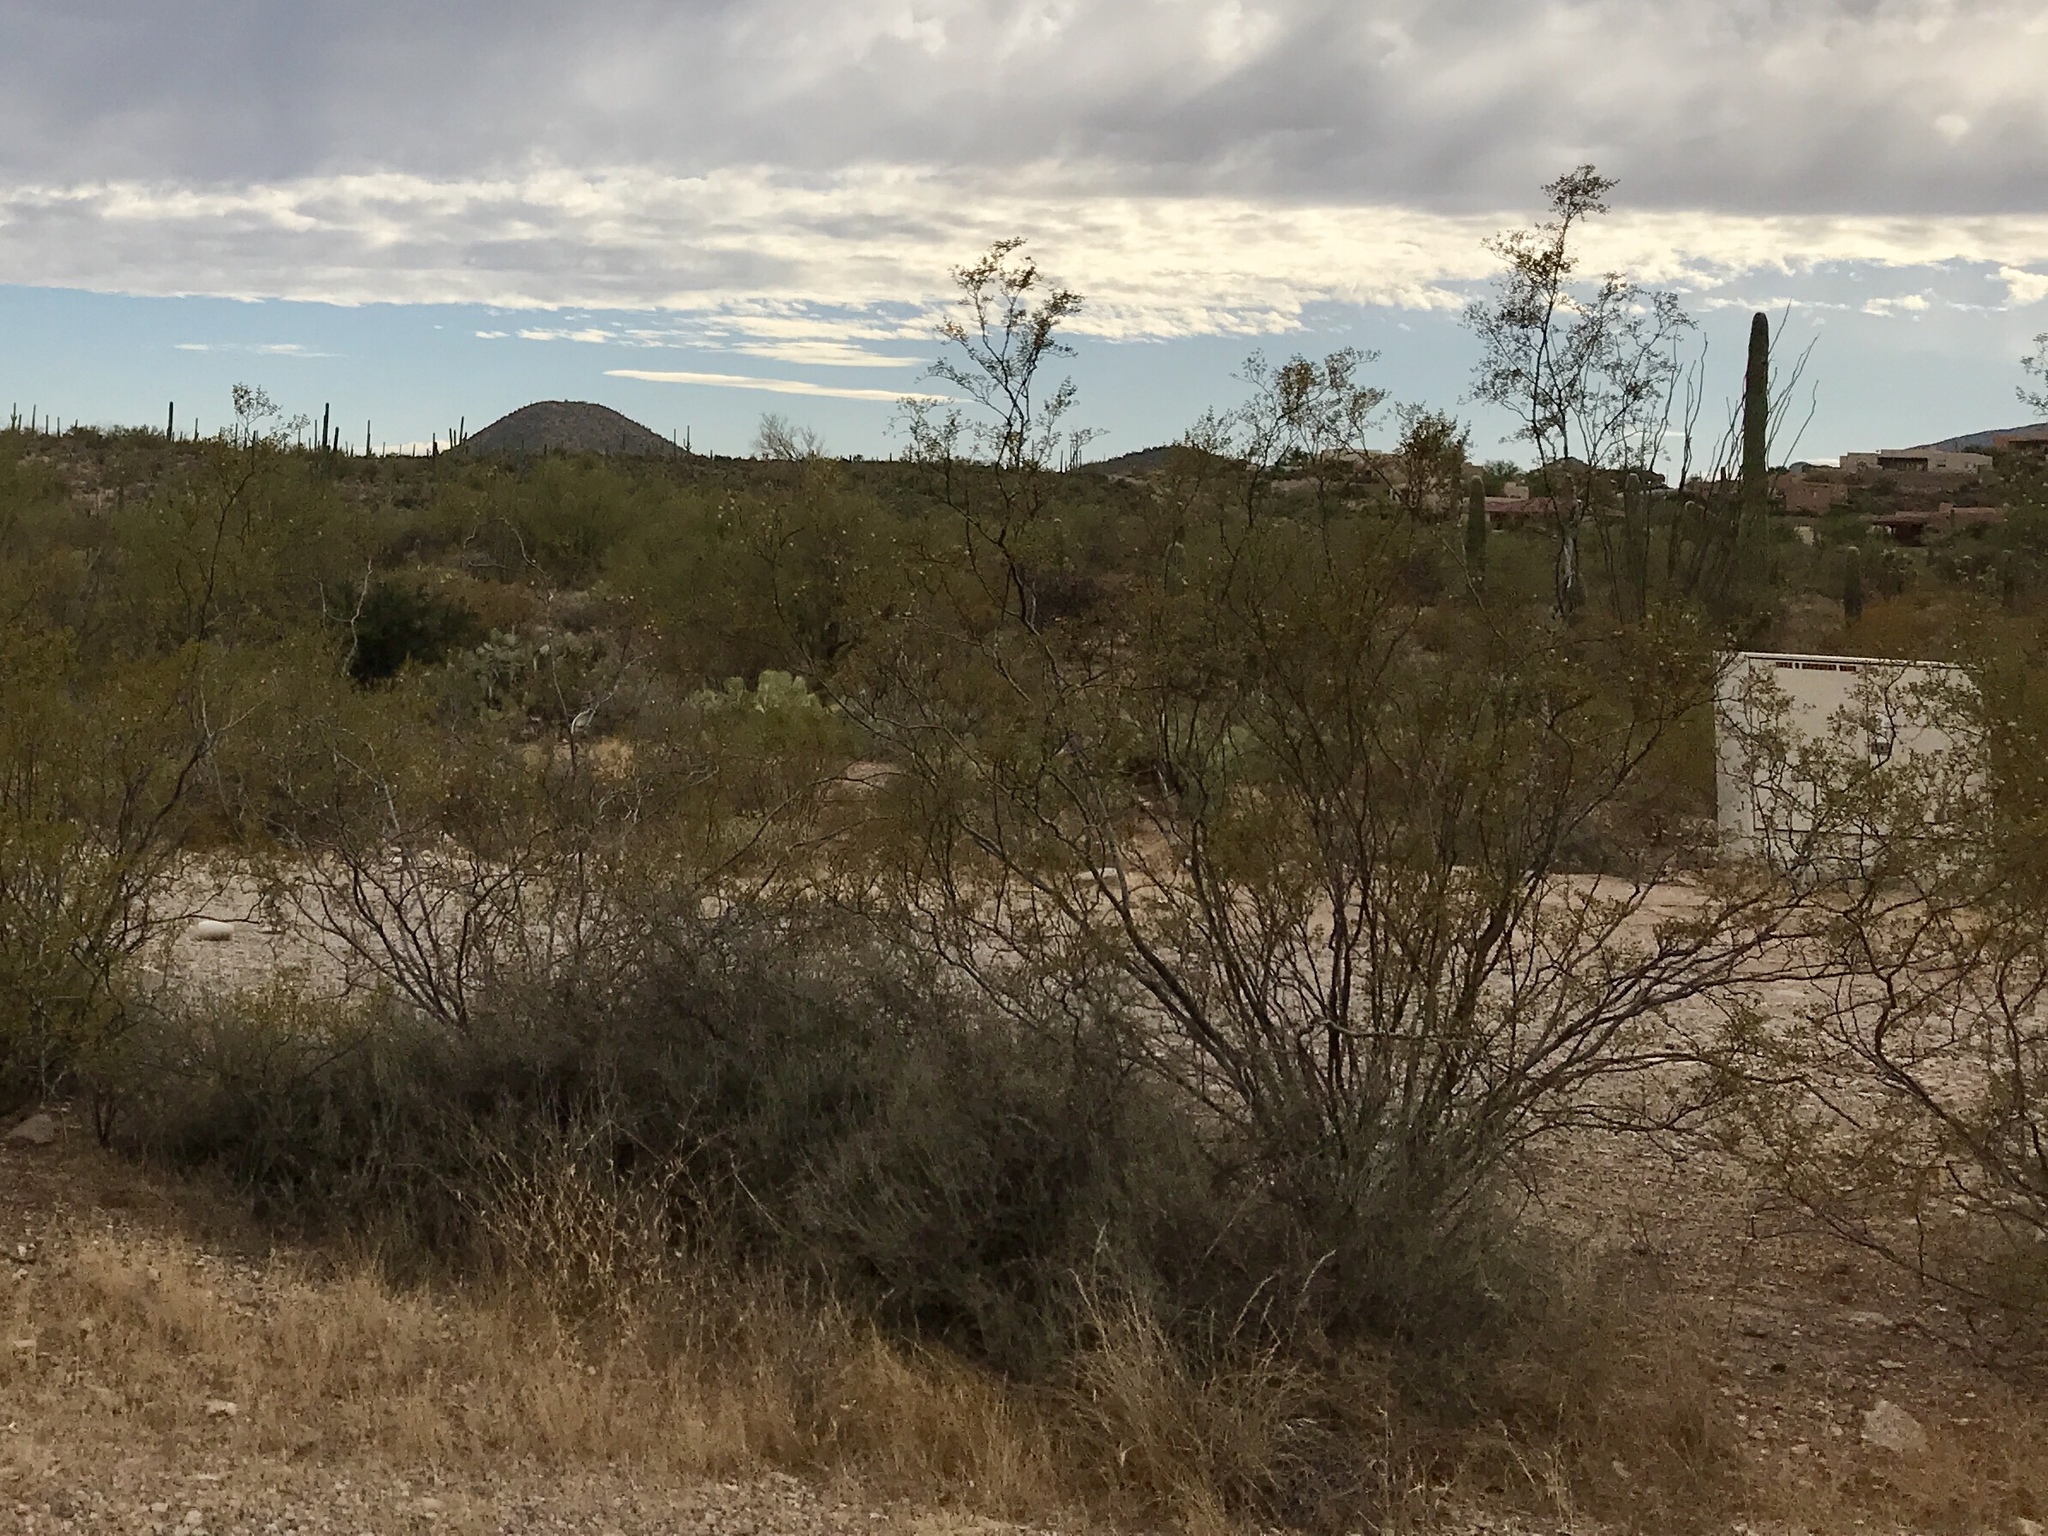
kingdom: Plantae
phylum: Tracheophyta
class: Magnoliopsida
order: Zygophyllales
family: Zygophyllaceae
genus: Larrea
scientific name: Larrea tridentata
